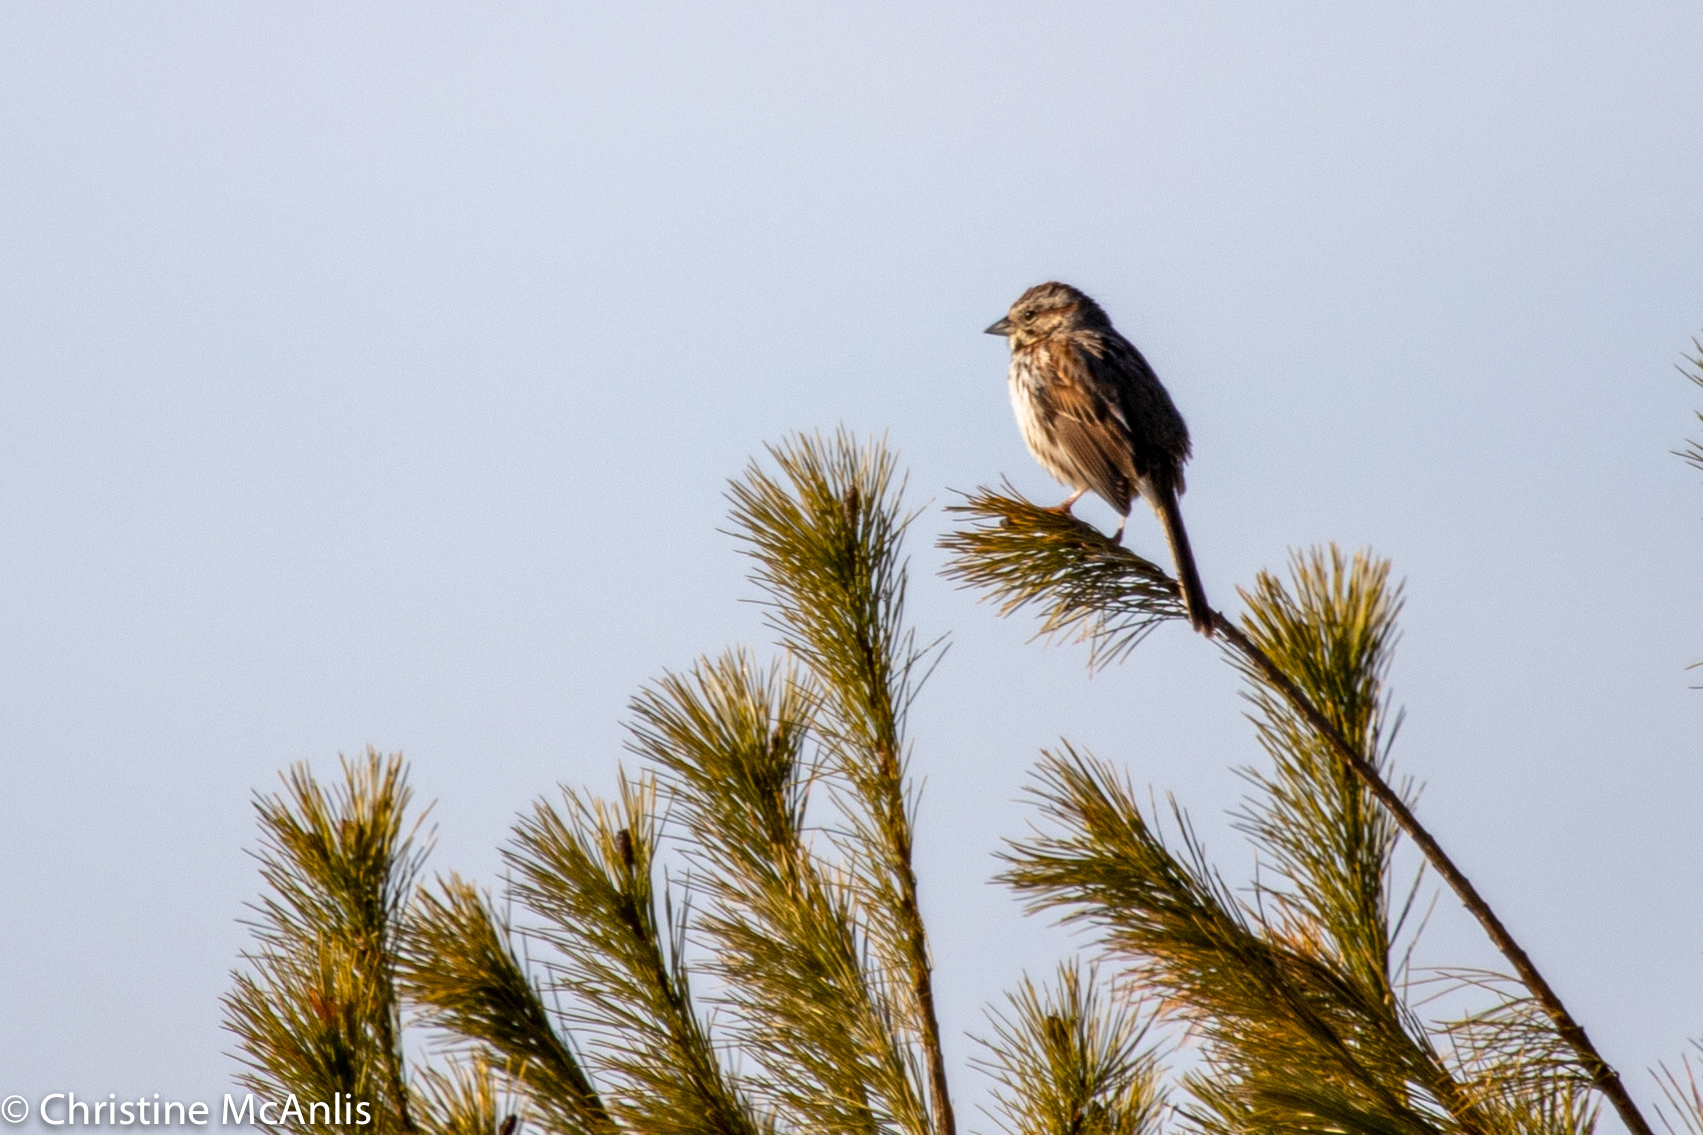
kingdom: Animalia
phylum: Chordata
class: Aves
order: Passeriformes
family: Passerellidae
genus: Melospiza
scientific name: Melospiza melodia
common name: Song sparrow
